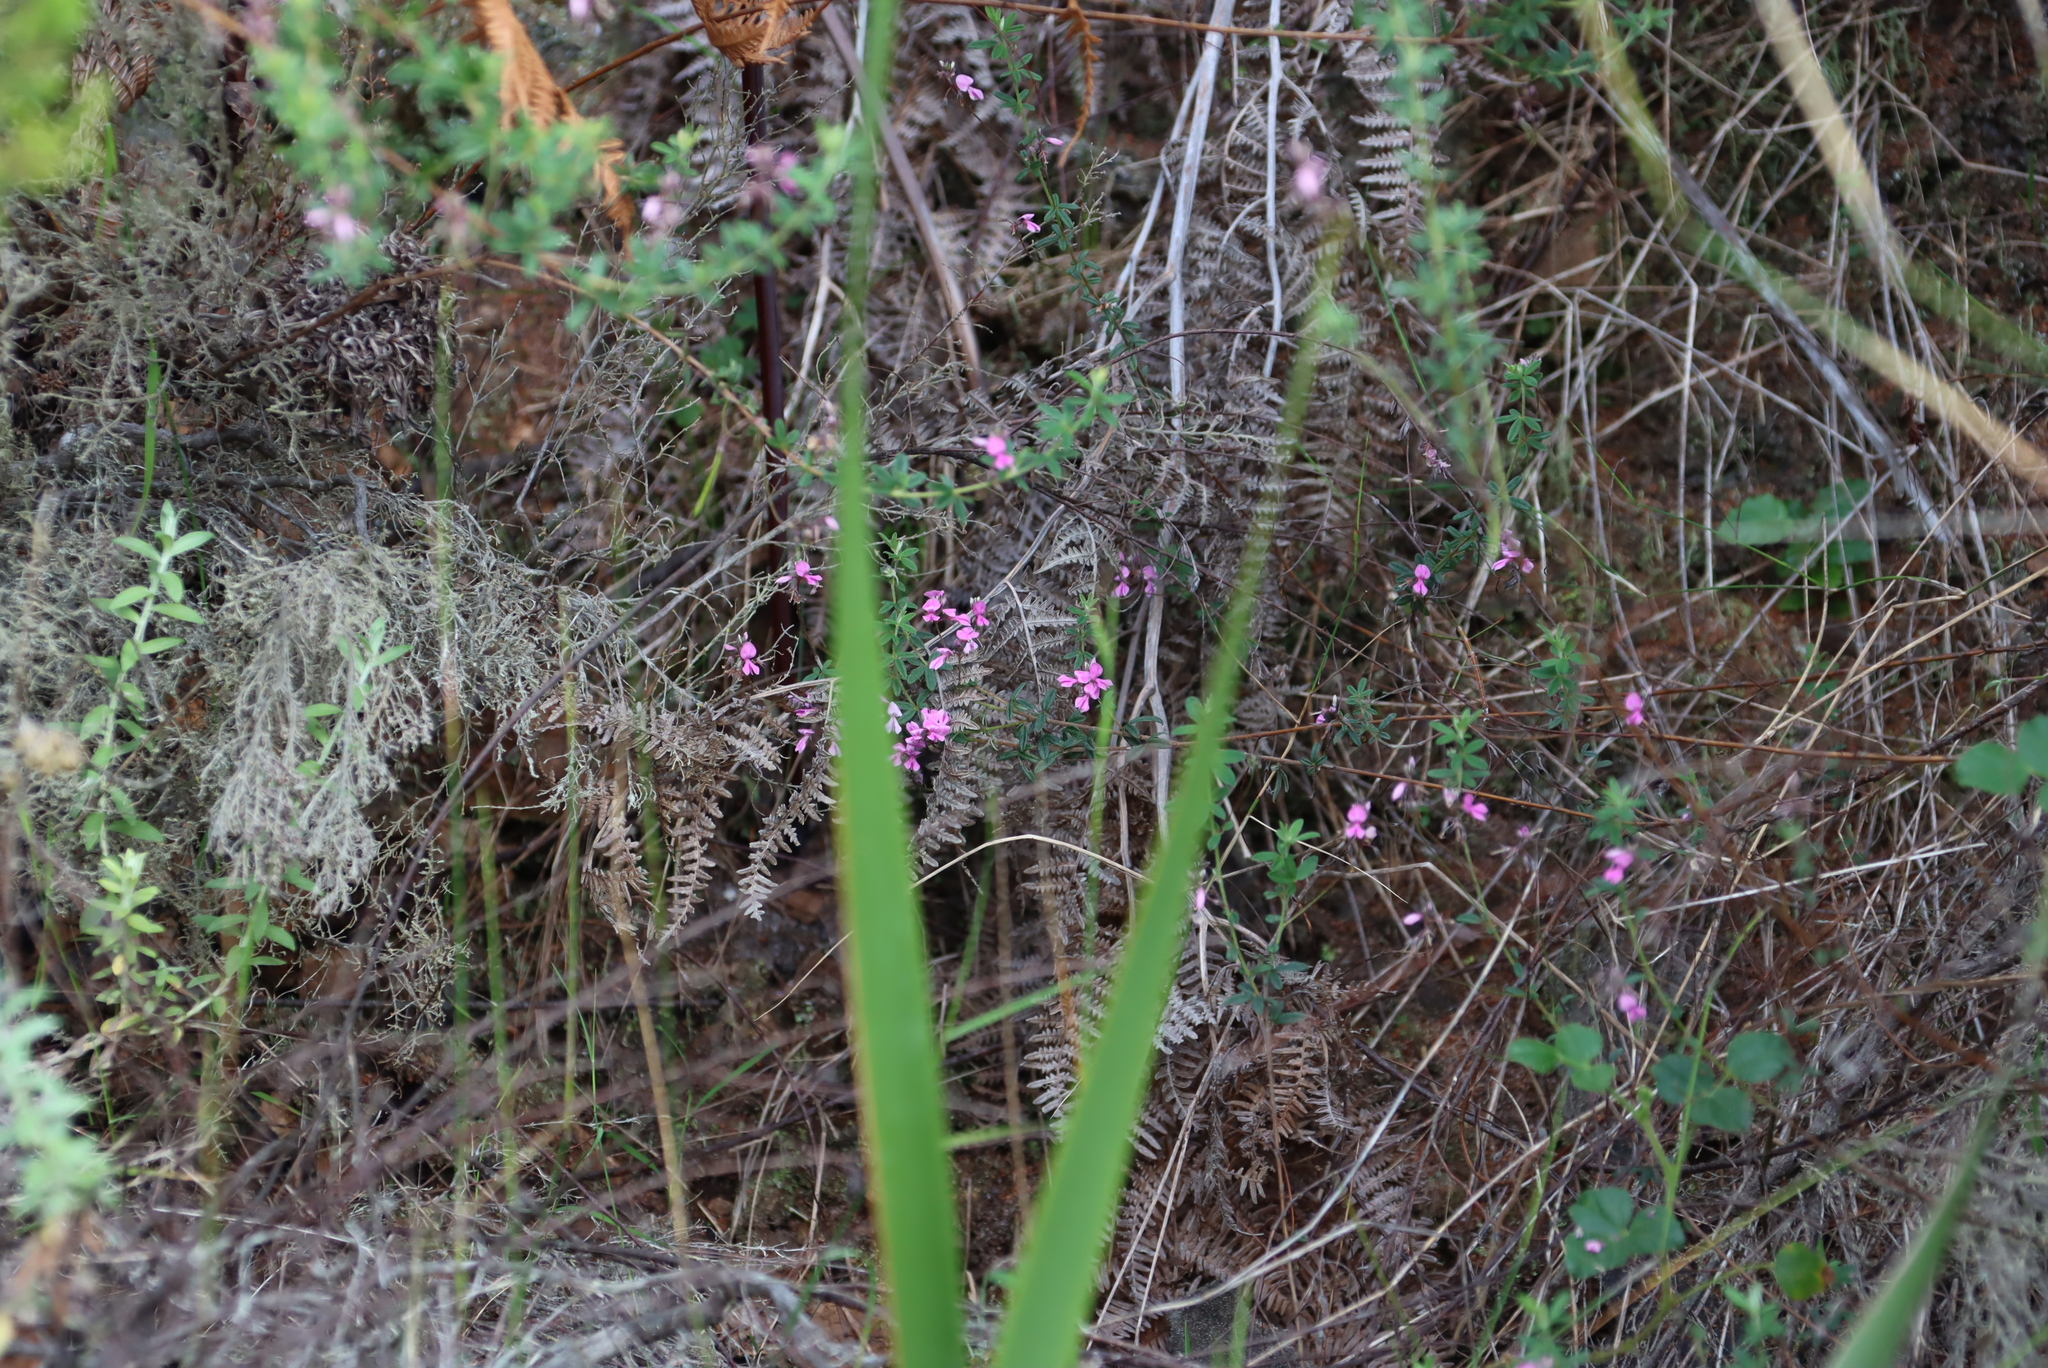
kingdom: Plantae
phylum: Tracheophyta
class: Magnoliopsida
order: Fabales
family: Fabaceae
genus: Indigofera
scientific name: Indigofera filiformis
